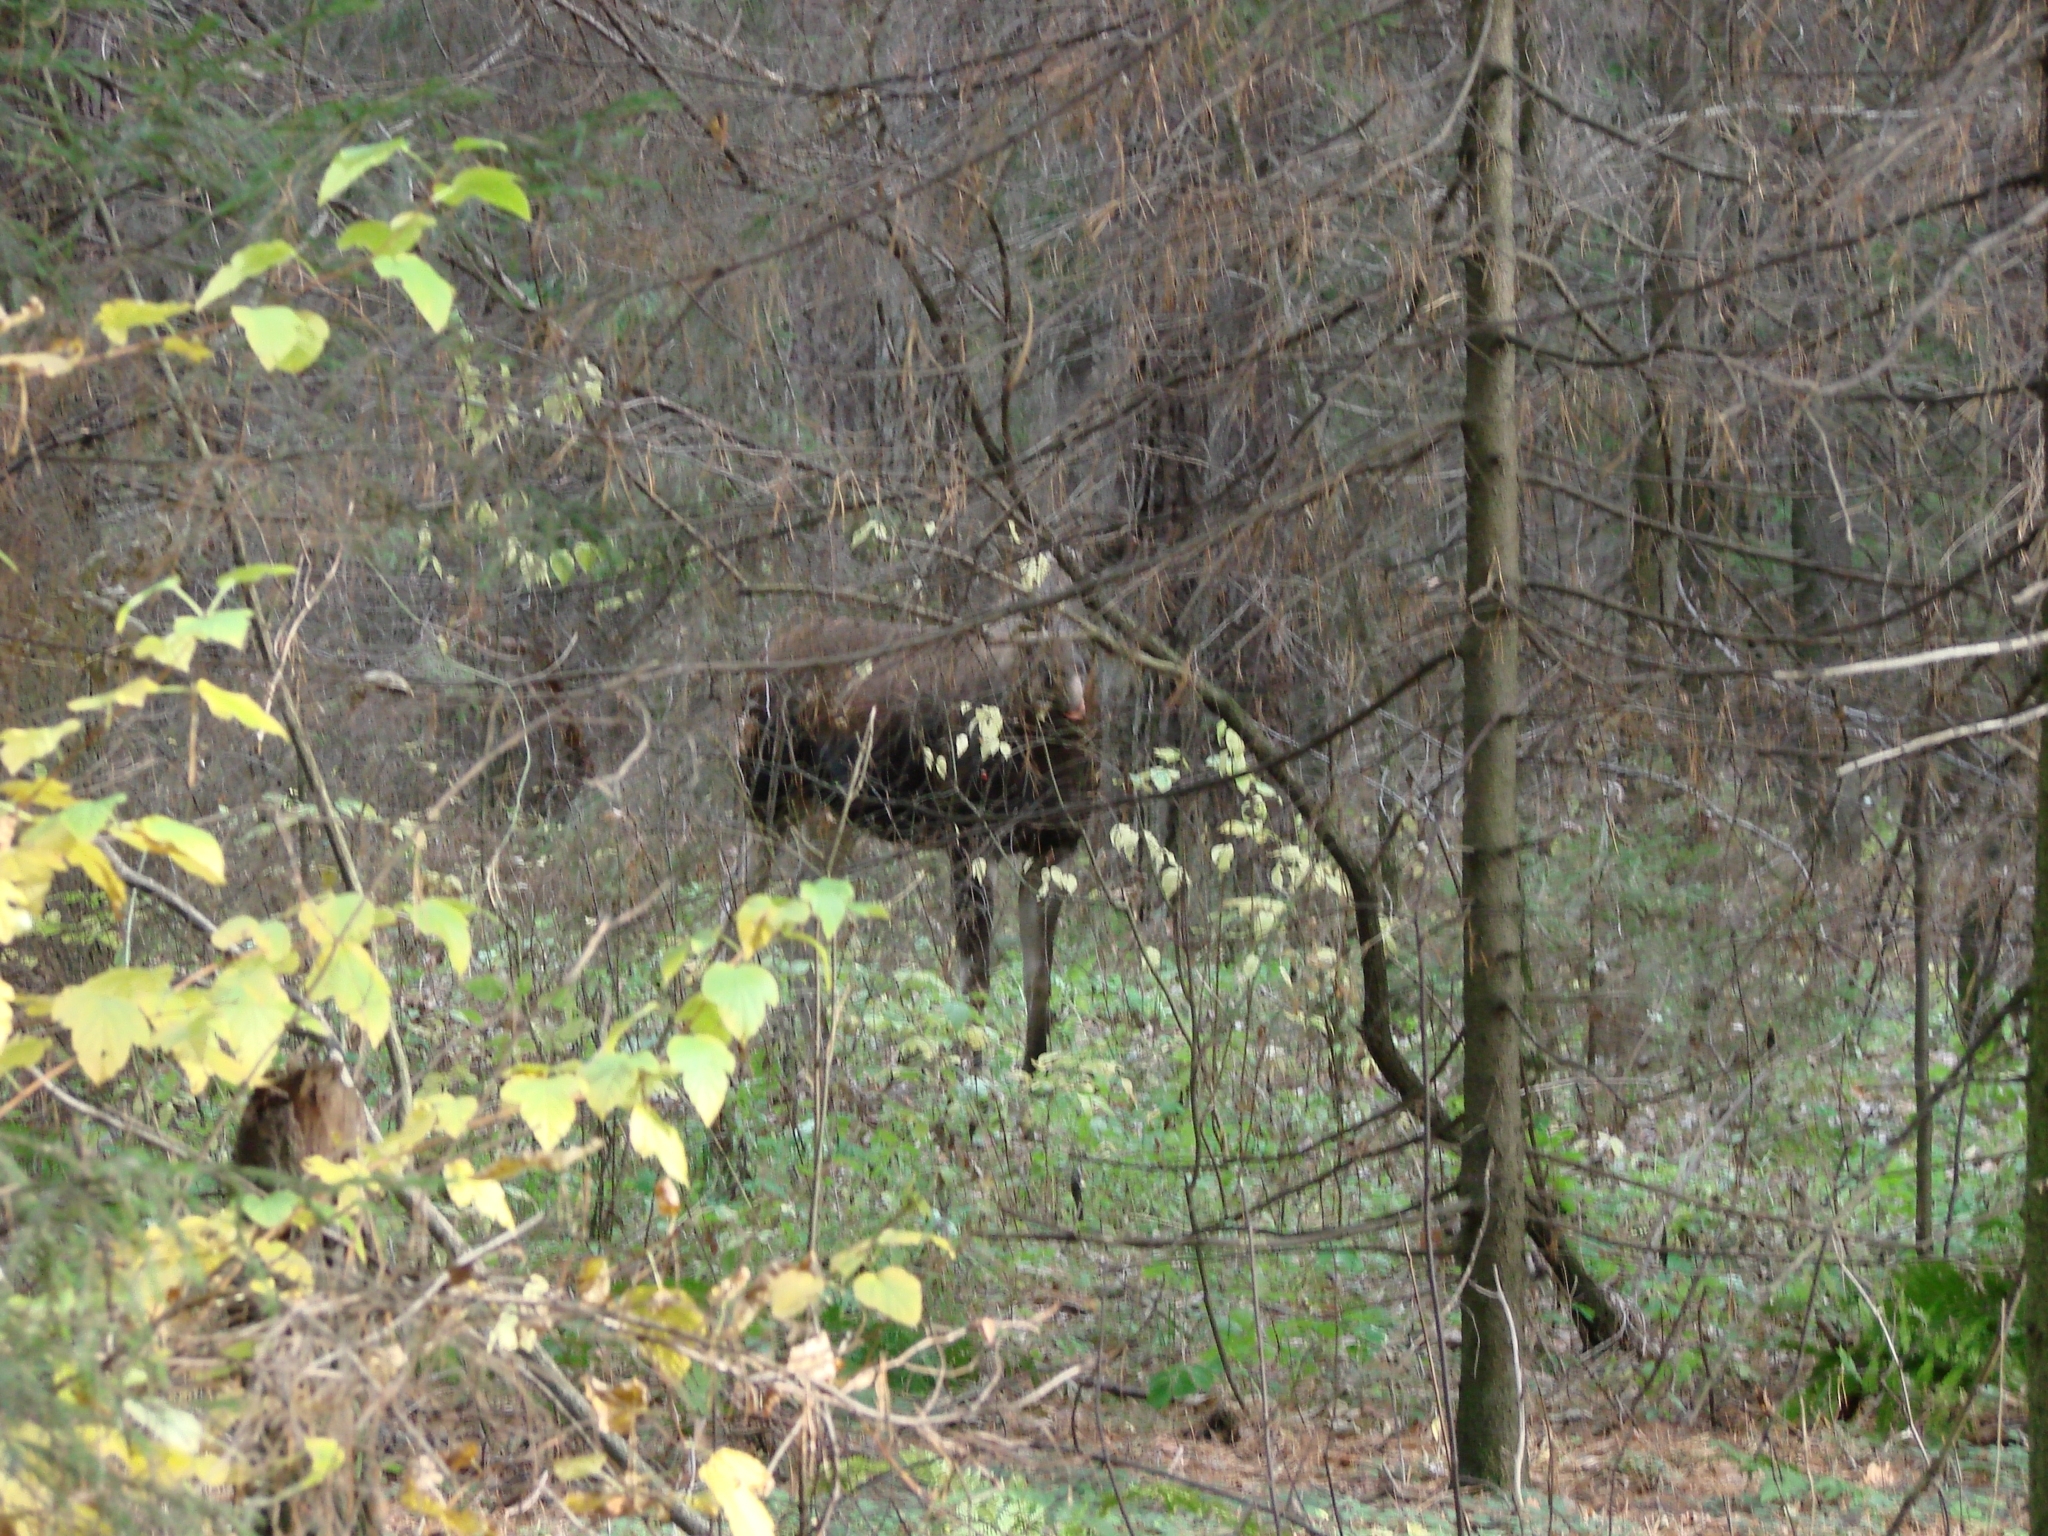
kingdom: Animalia
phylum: Chordata
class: Mammalia
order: Artiodactyla
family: Cervidae
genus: Alces
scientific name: Alces alces
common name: Moose
